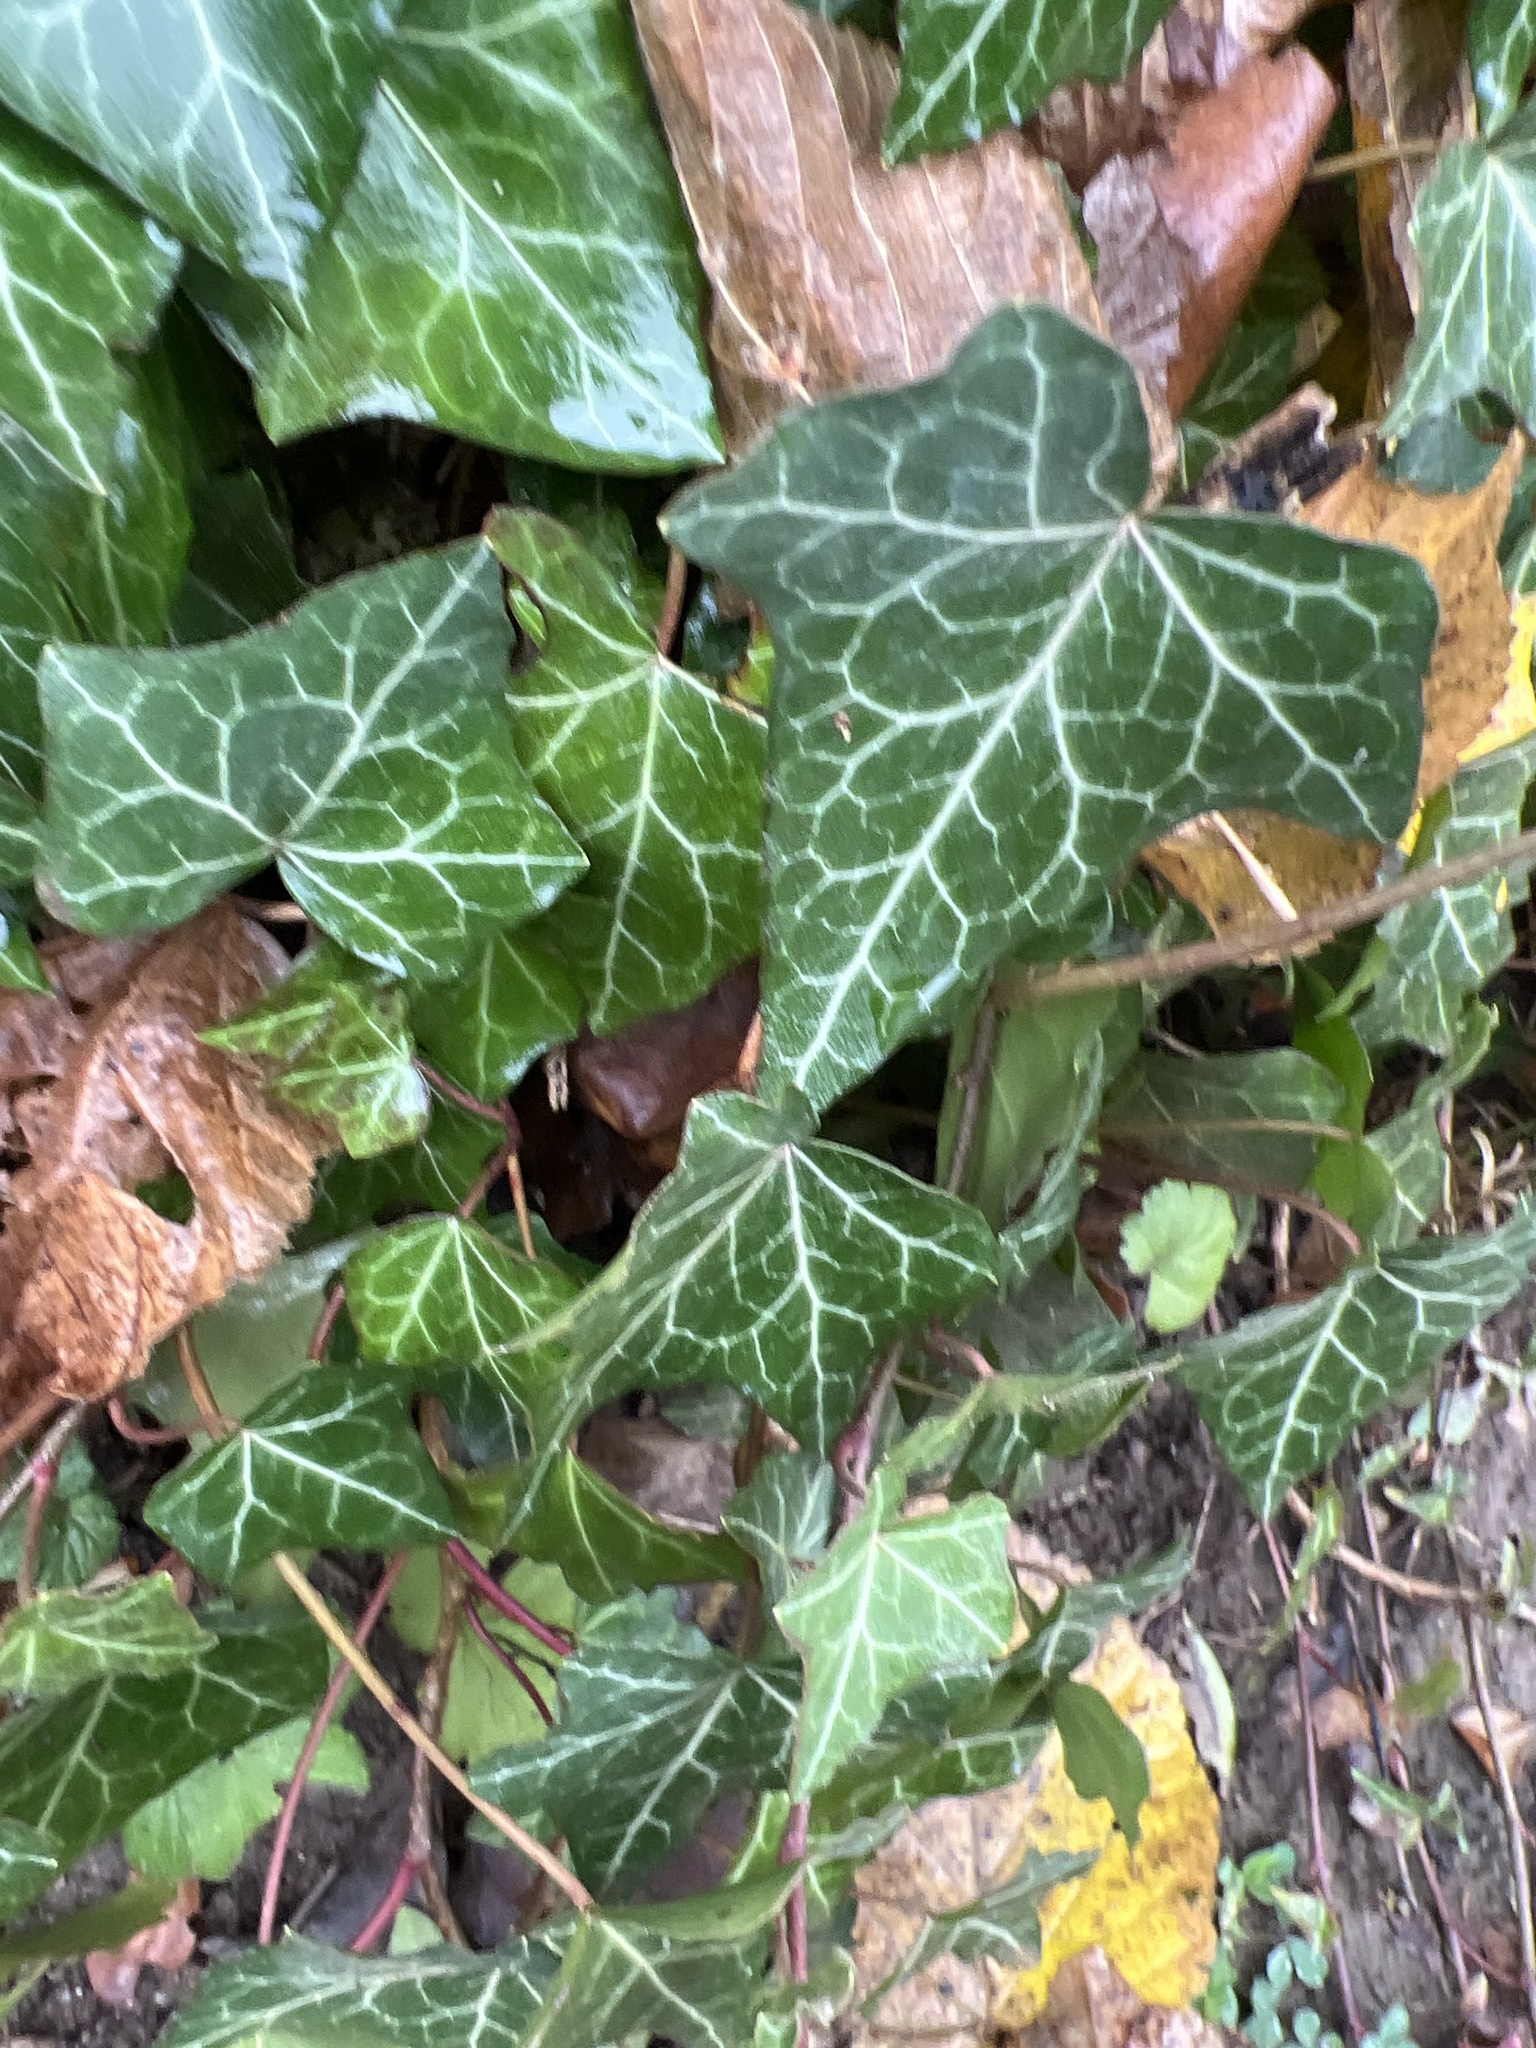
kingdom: Plantae
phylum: Tracheophyta
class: Magnoliopsida
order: Apiales
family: Araliaceae
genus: Hedera
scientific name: Hedera helix
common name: Ivy
